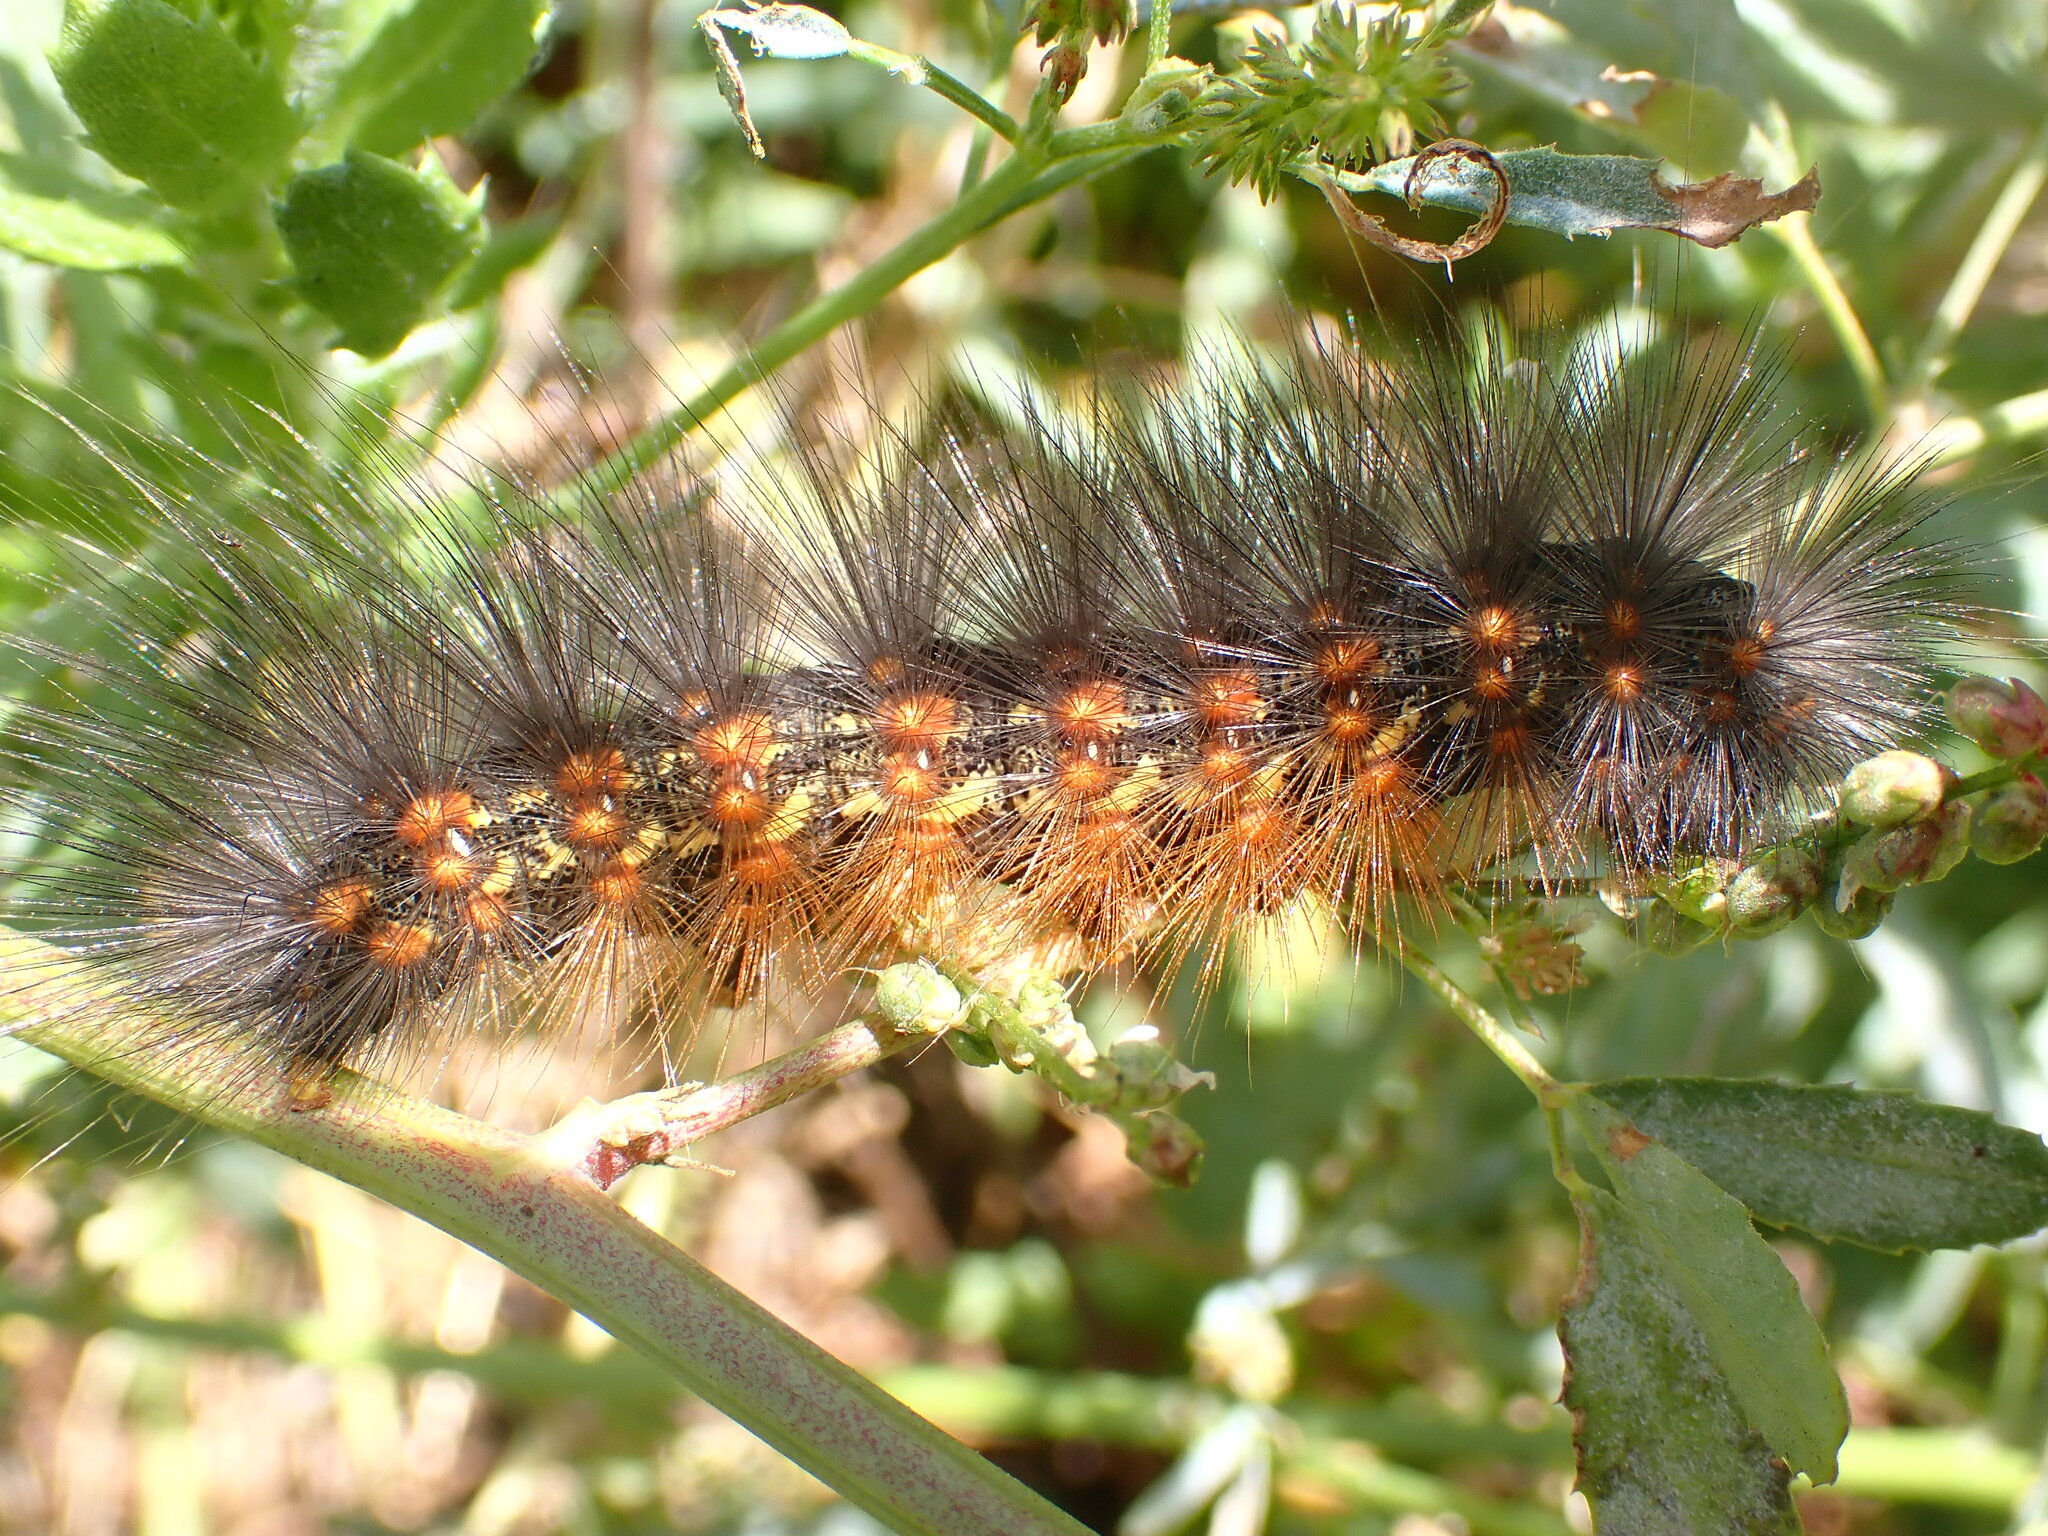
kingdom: Animalia
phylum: Arthropoda
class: Insecta
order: Lepidoptera
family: Erebidae
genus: Estigmene
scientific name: Estigmene acrea
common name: Salt marsh moth
